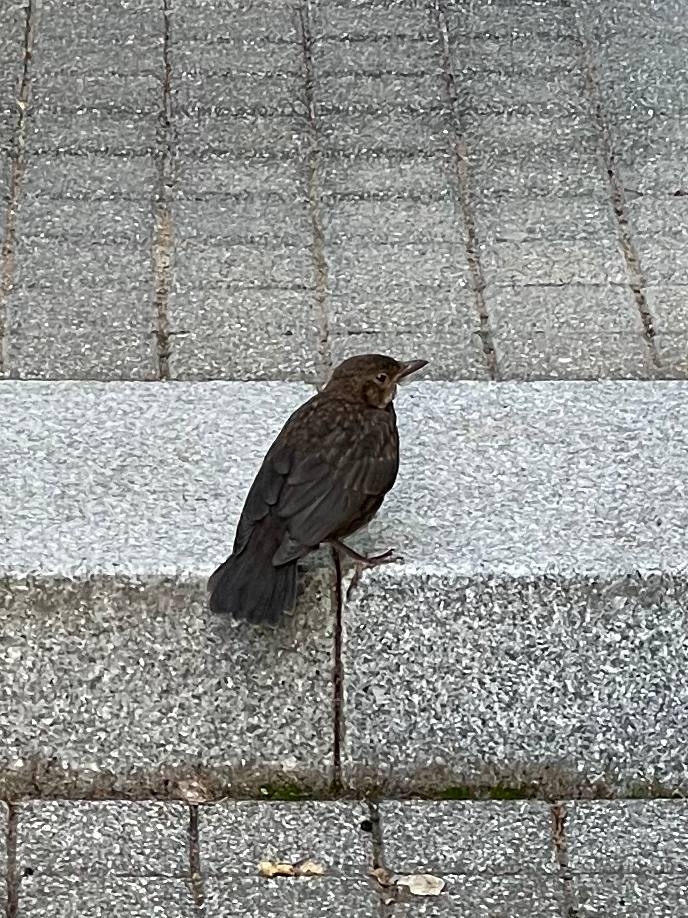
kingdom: Animalia
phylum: Chordata
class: Aves
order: Passeriformes
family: Turdidae
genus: Turdus
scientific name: Turdus merula
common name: Common blackbird
